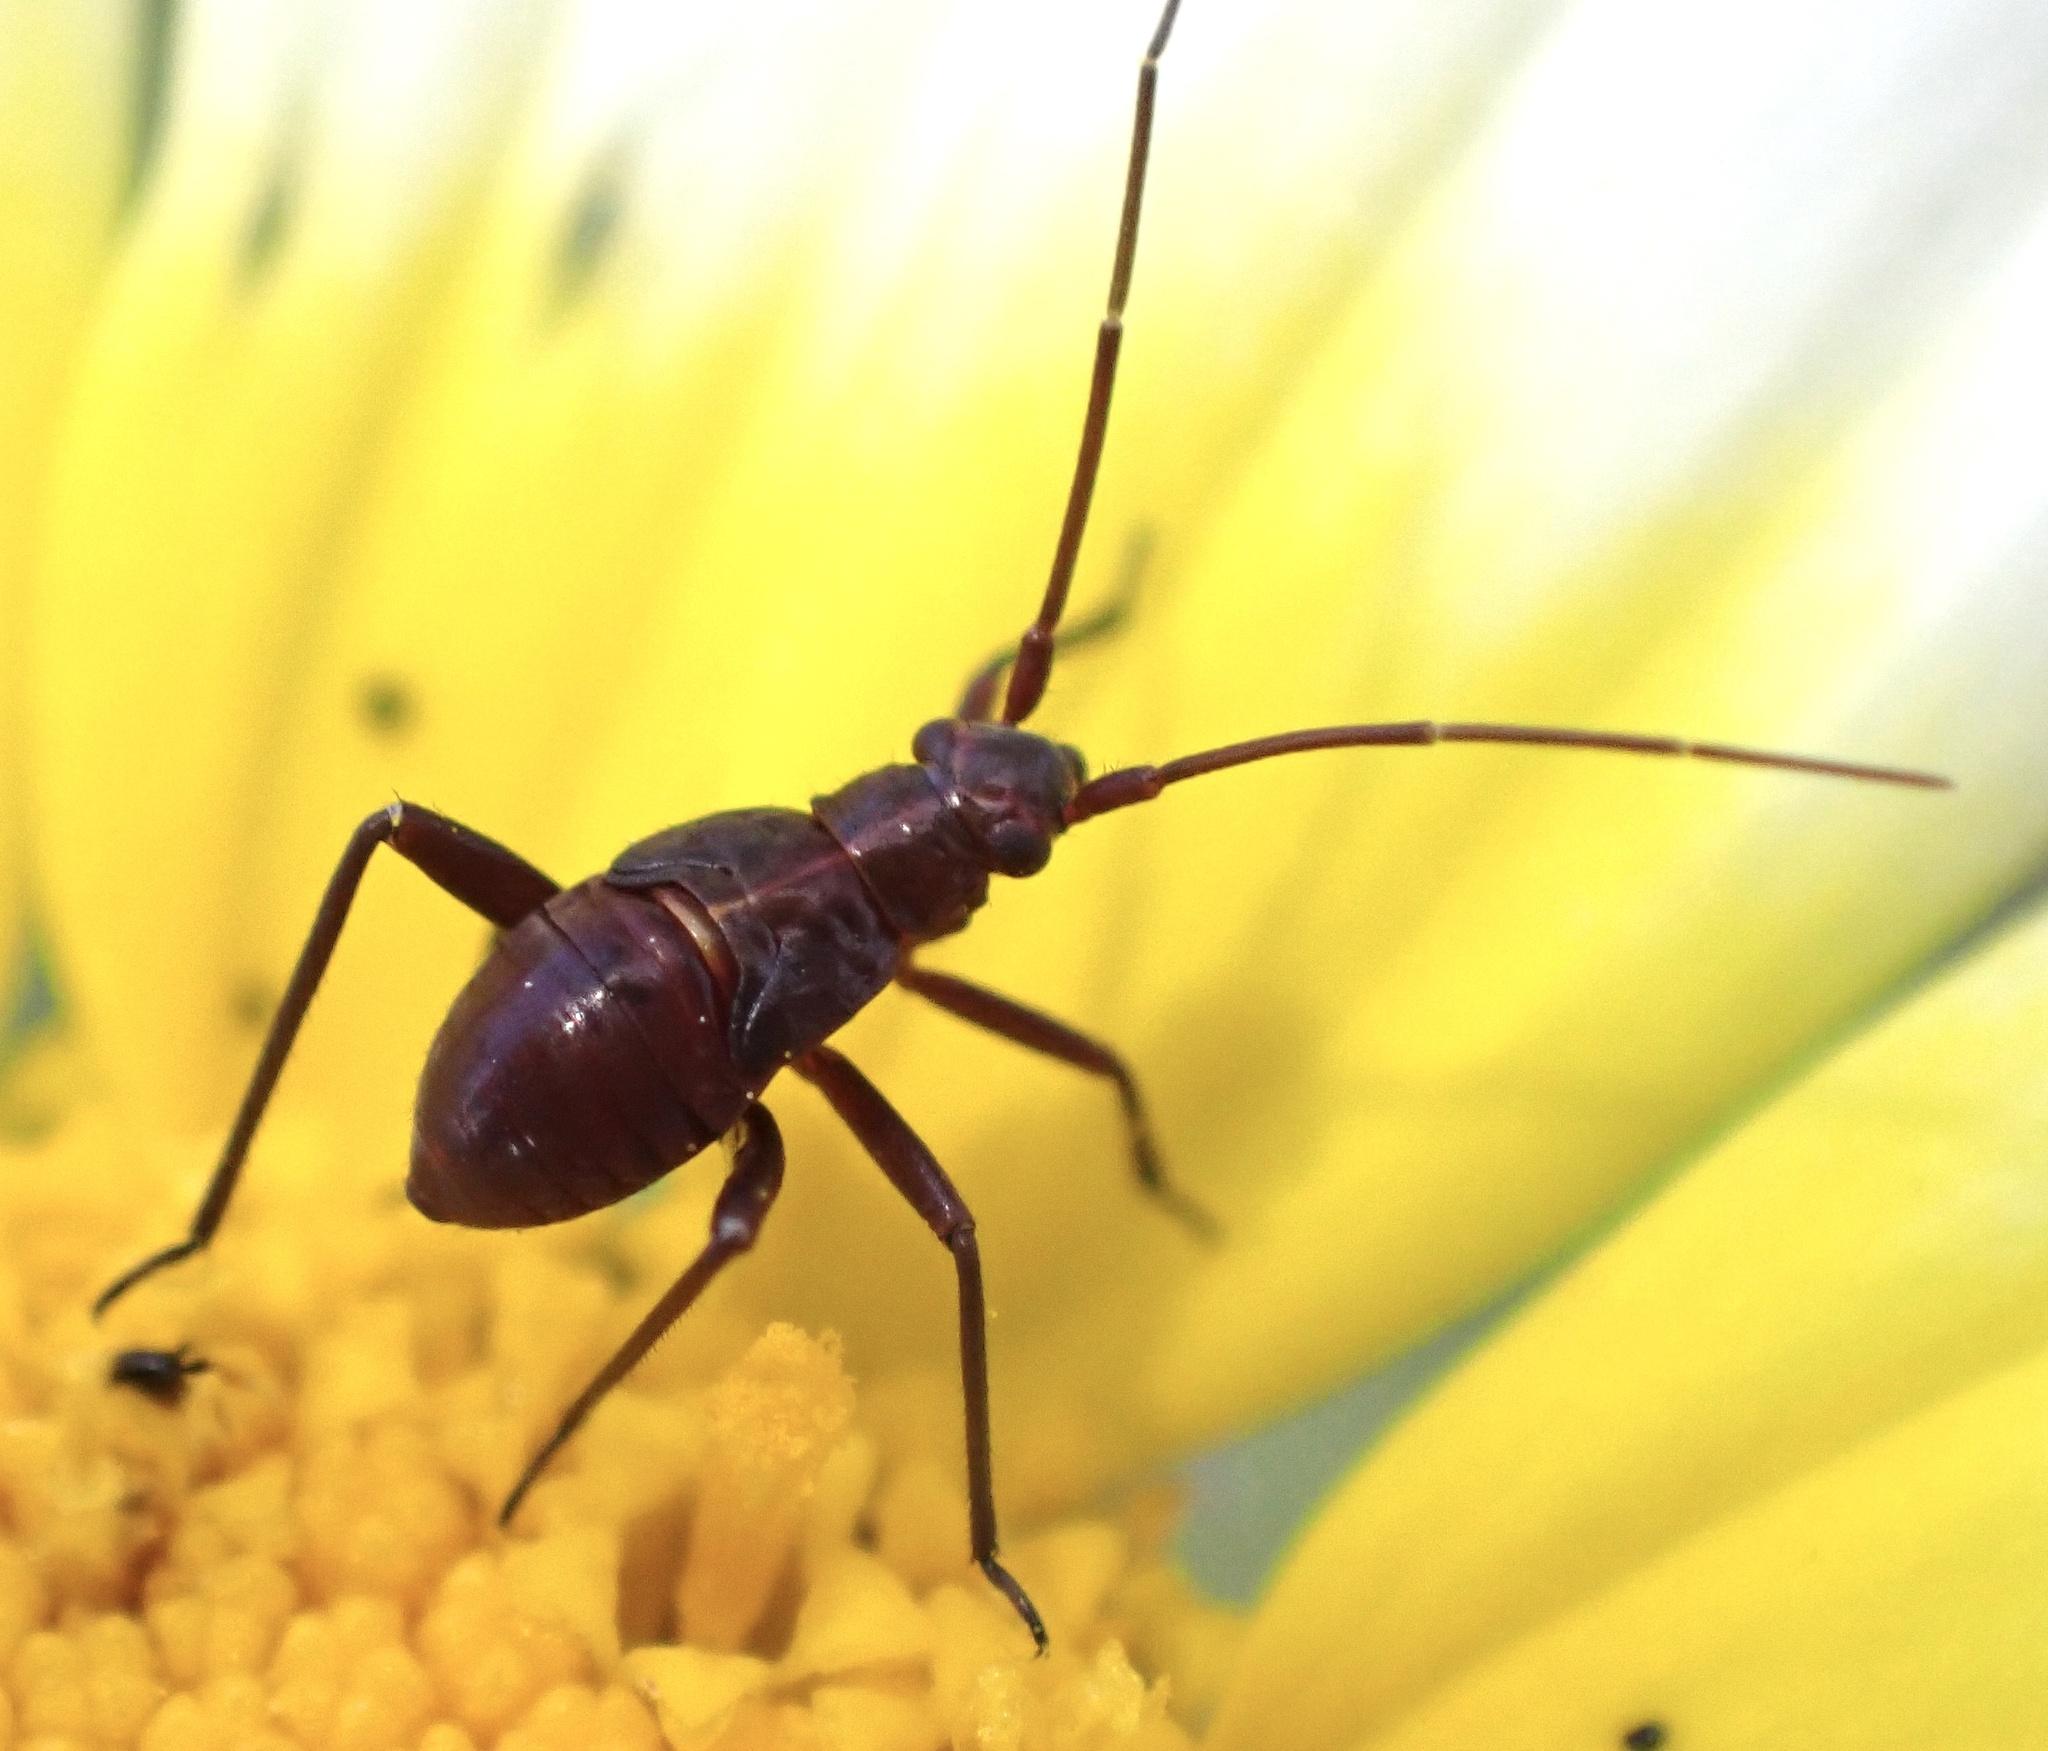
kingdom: Animalia
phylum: Arthropoda
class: Insecta
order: Hemiptera
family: Miridae
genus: Calocoris
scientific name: Calocoris nemoralis
